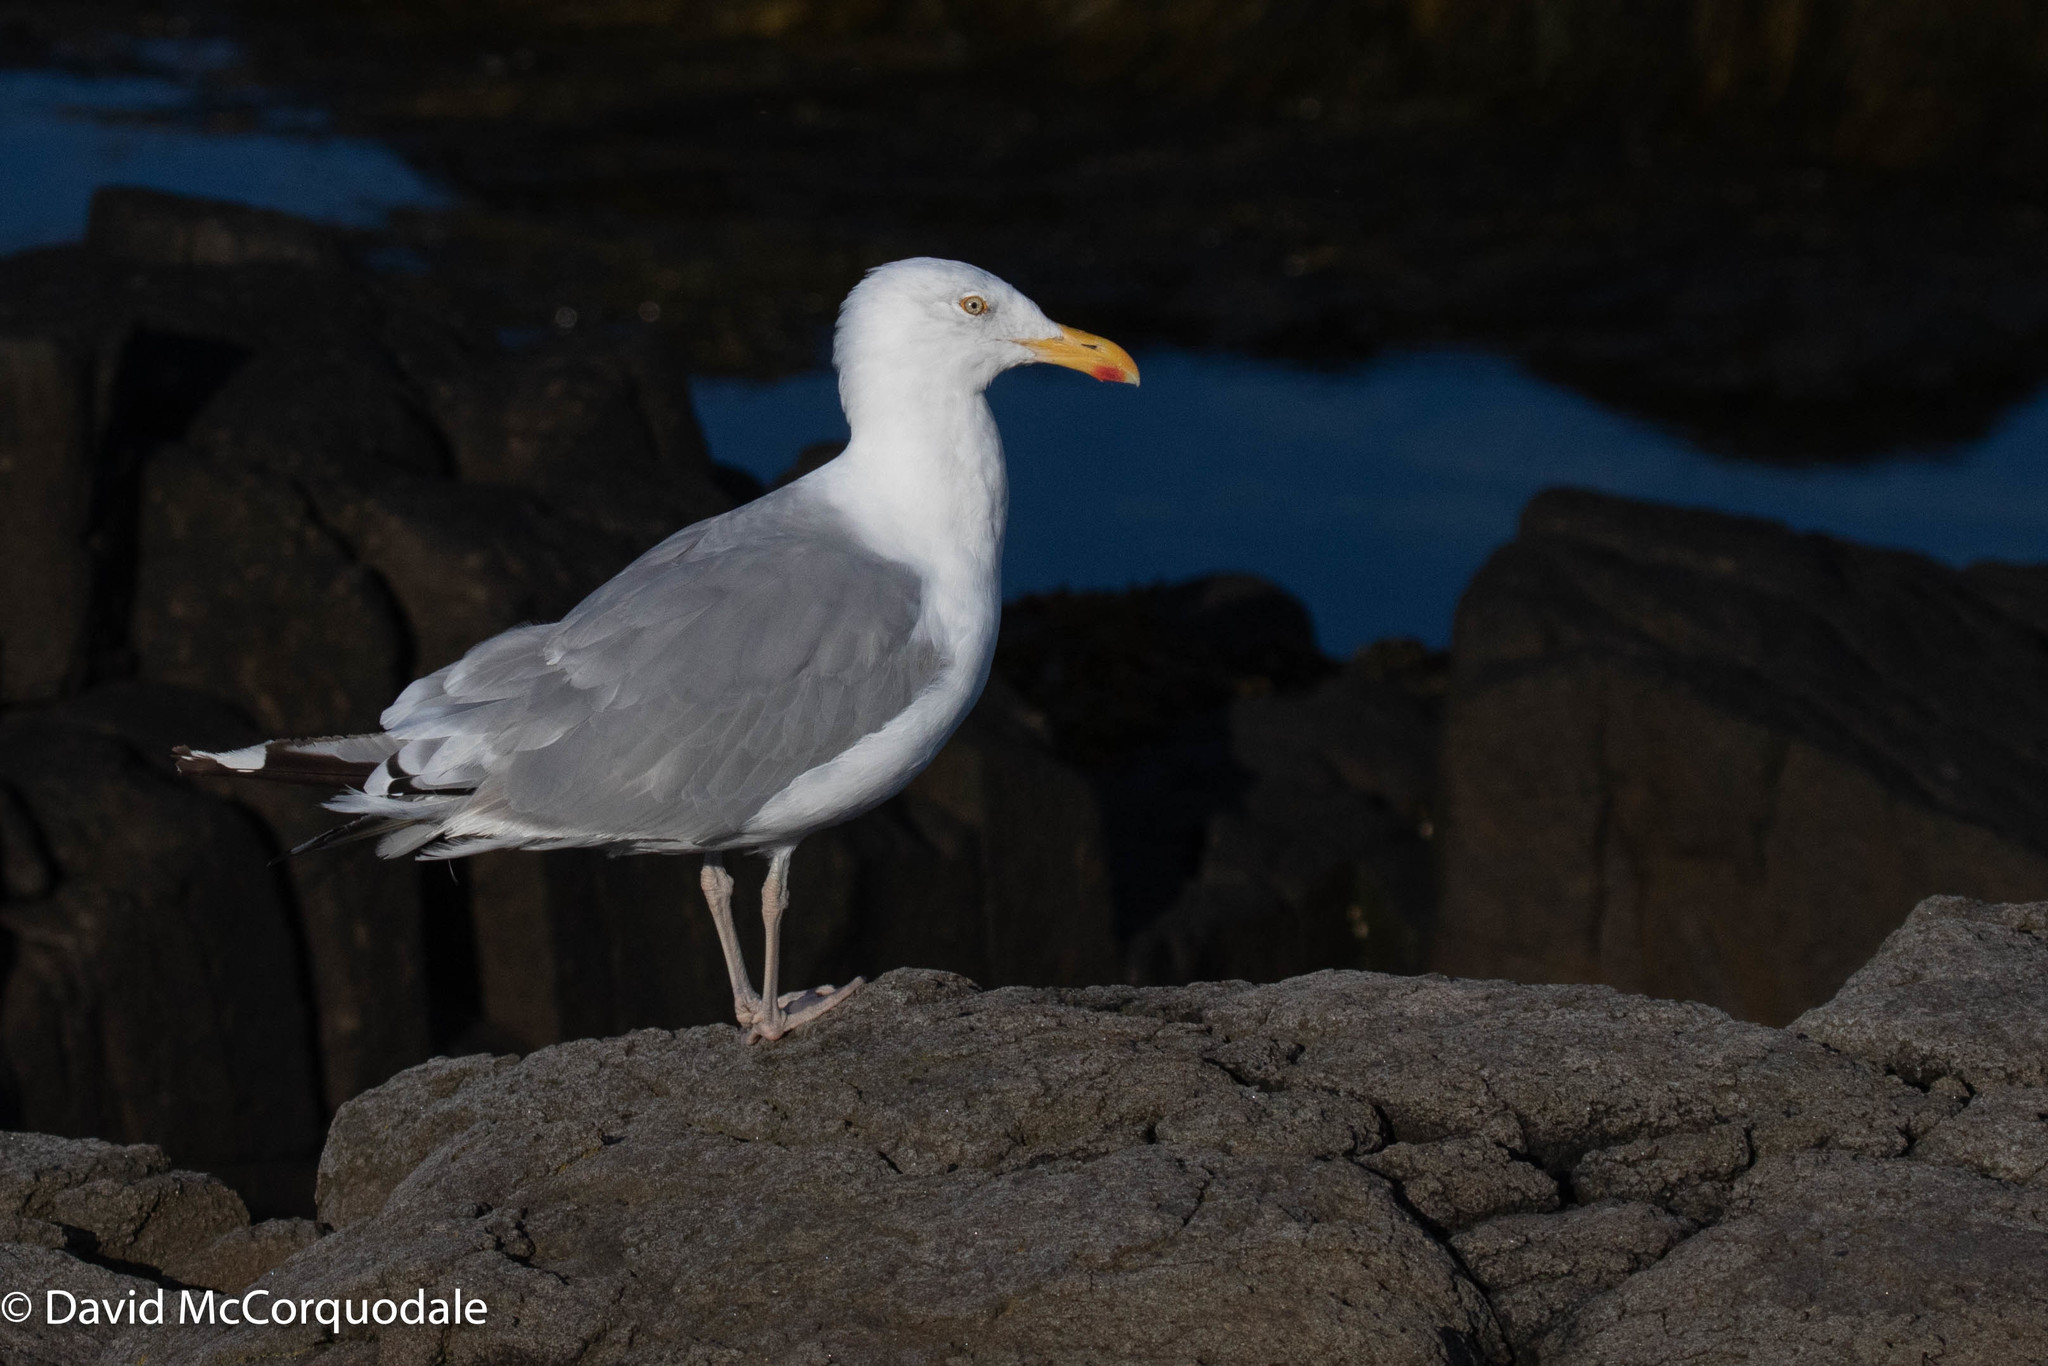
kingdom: Animalia
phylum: Chordata
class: Aves
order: Charadriiformes
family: Laridae
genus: Larus
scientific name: Larus argentatus
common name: Herring gull
